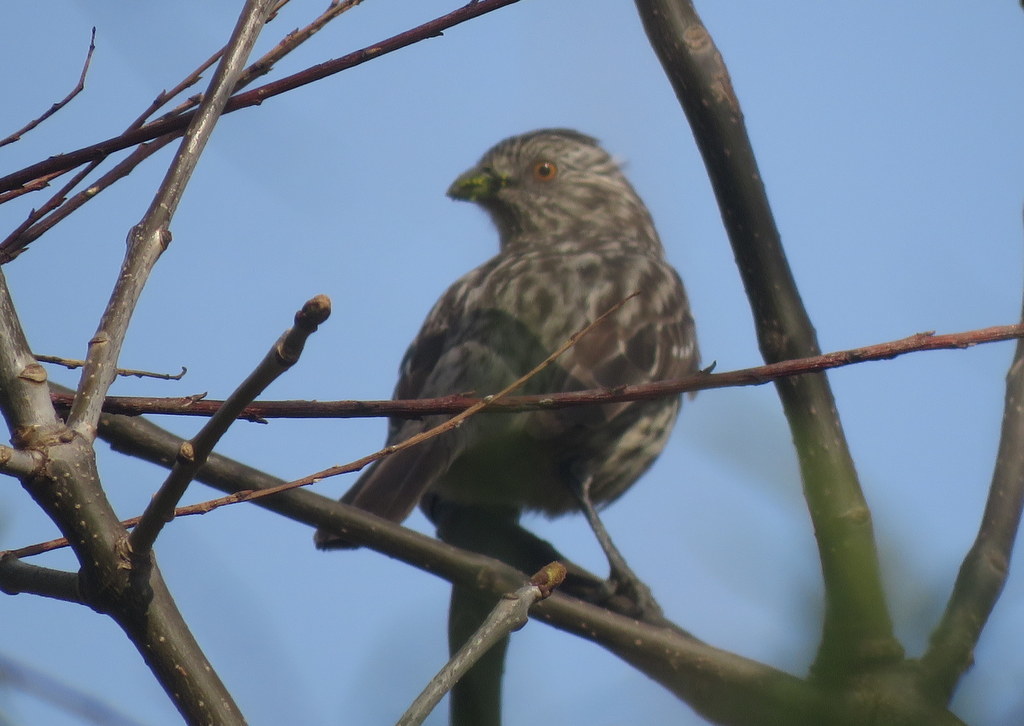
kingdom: Animalia
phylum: Chordata
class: Aves
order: Passeriformes
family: Cotingidae
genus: Phytotoma
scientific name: Phytotoma rutila
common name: White-tipped plantcutter
